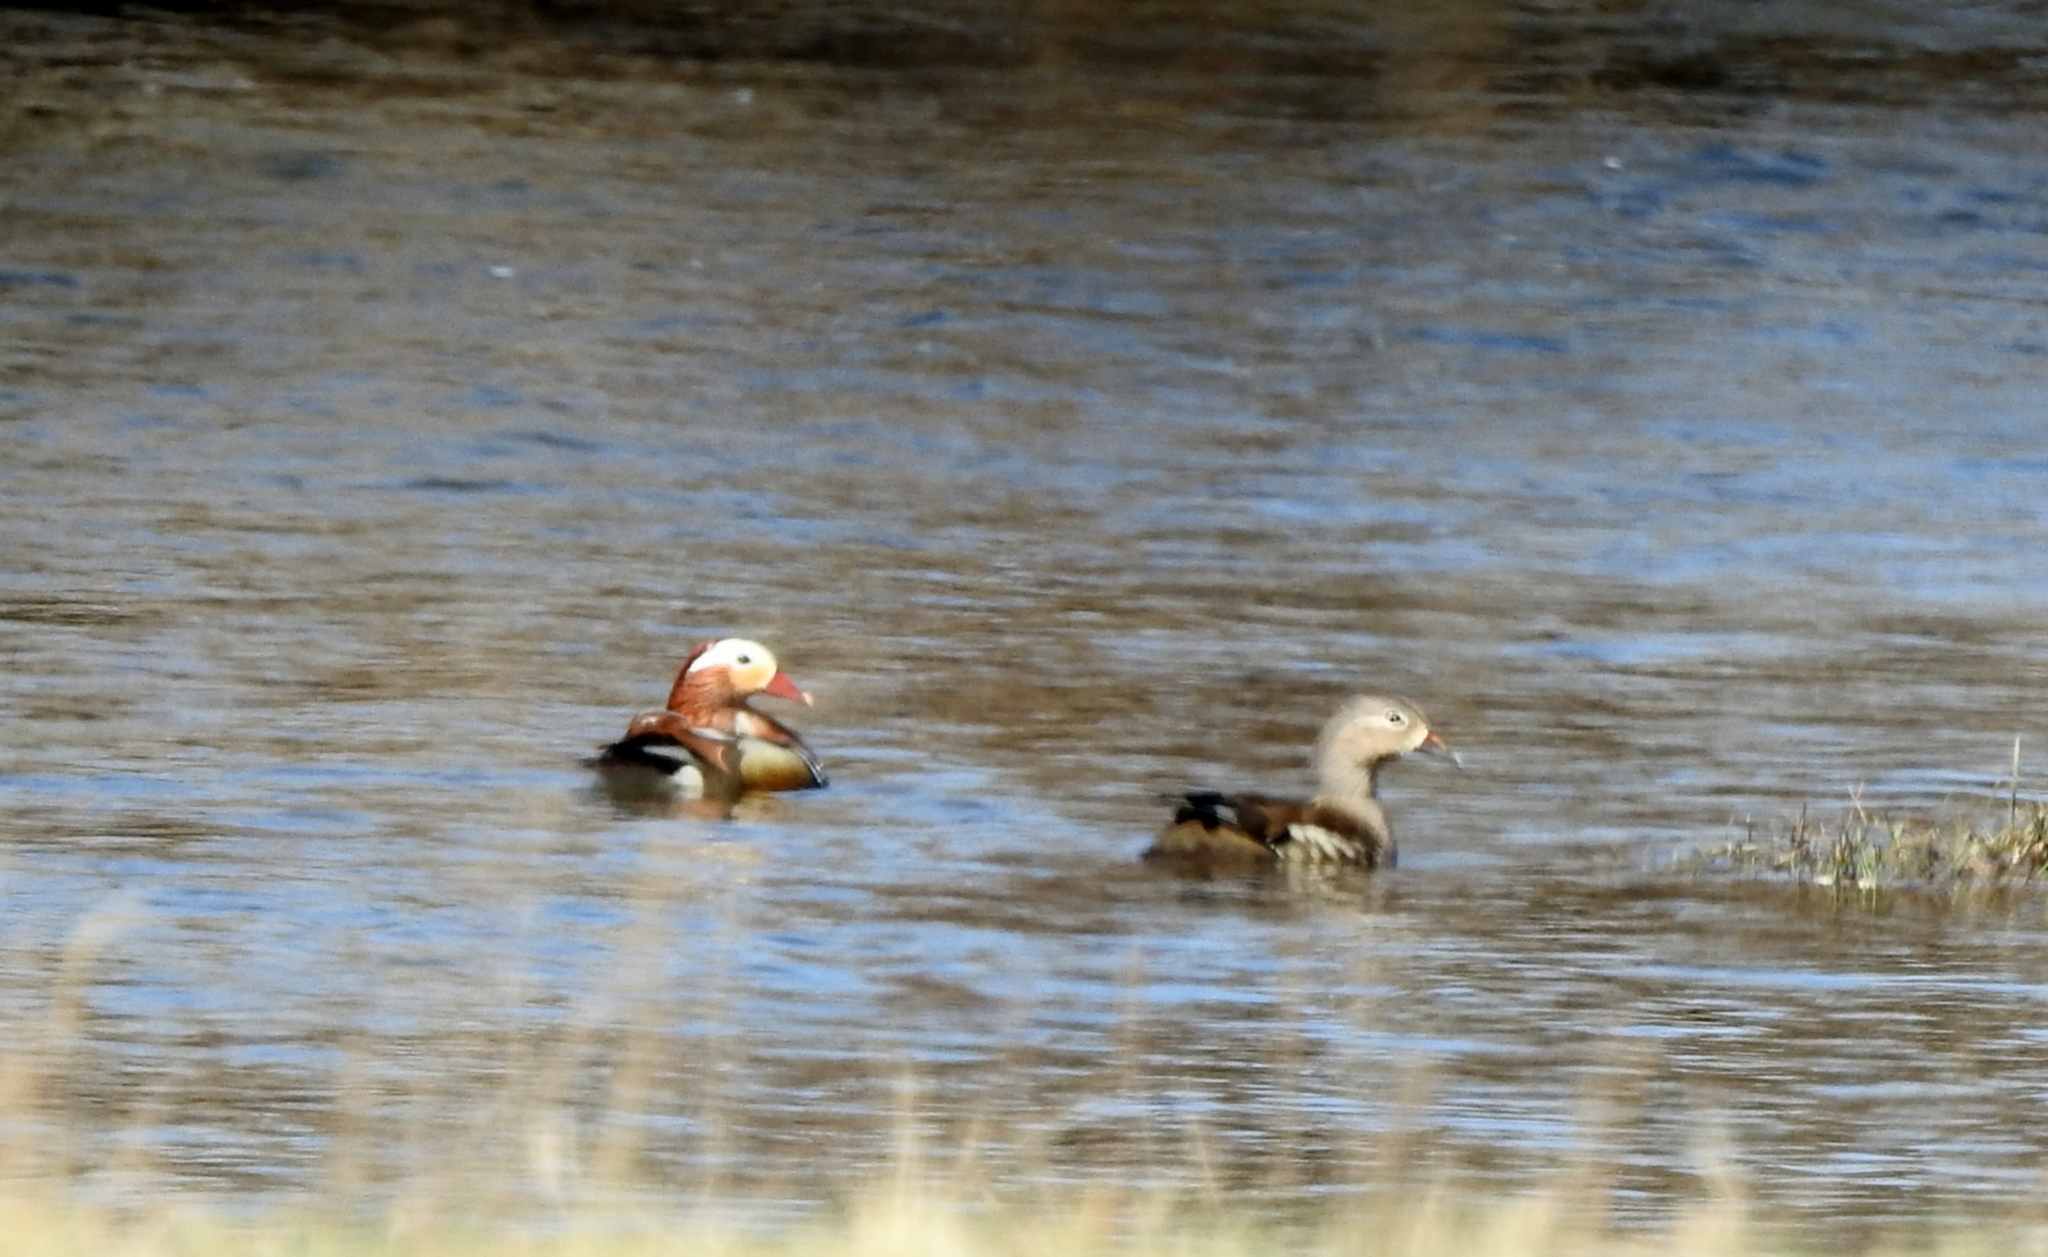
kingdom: Animalia
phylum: Chordata
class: Aves
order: Anseriformes
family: Anatidae
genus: Aix
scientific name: Aix galericulata
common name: Mandarin duck
